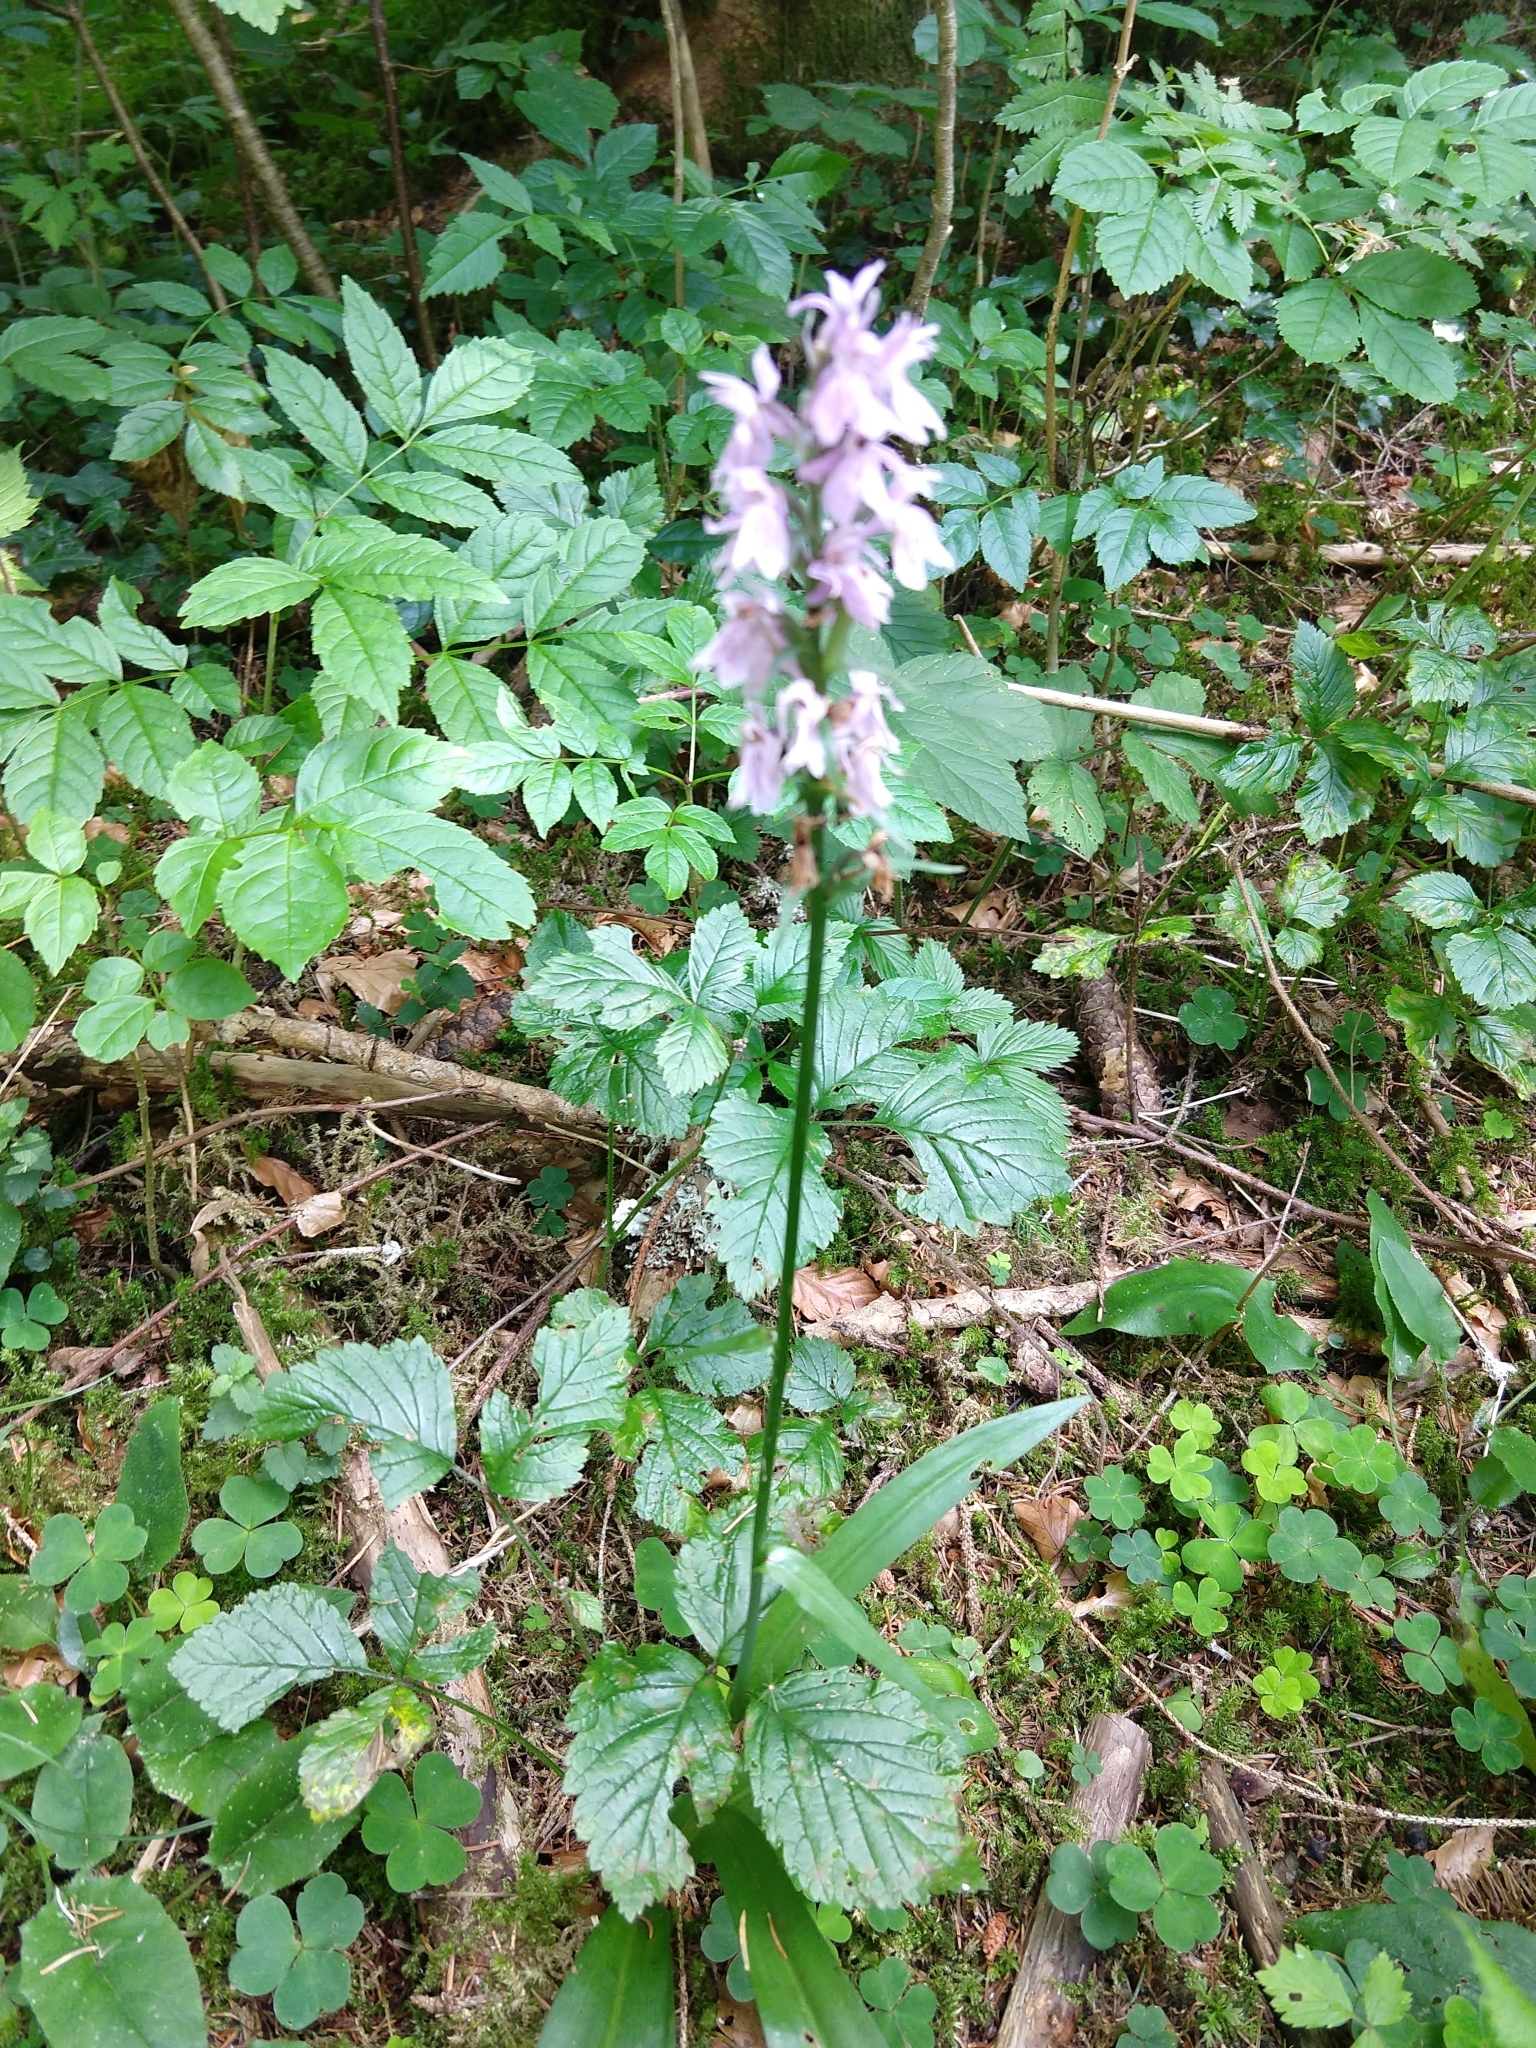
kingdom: Plantae
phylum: Tracheophyta
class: Liliopsida
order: Asparagales
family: Orchidaceae
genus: Dactylorhiza
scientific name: Dactylorhiza maculata
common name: Heath spotted-orchid
